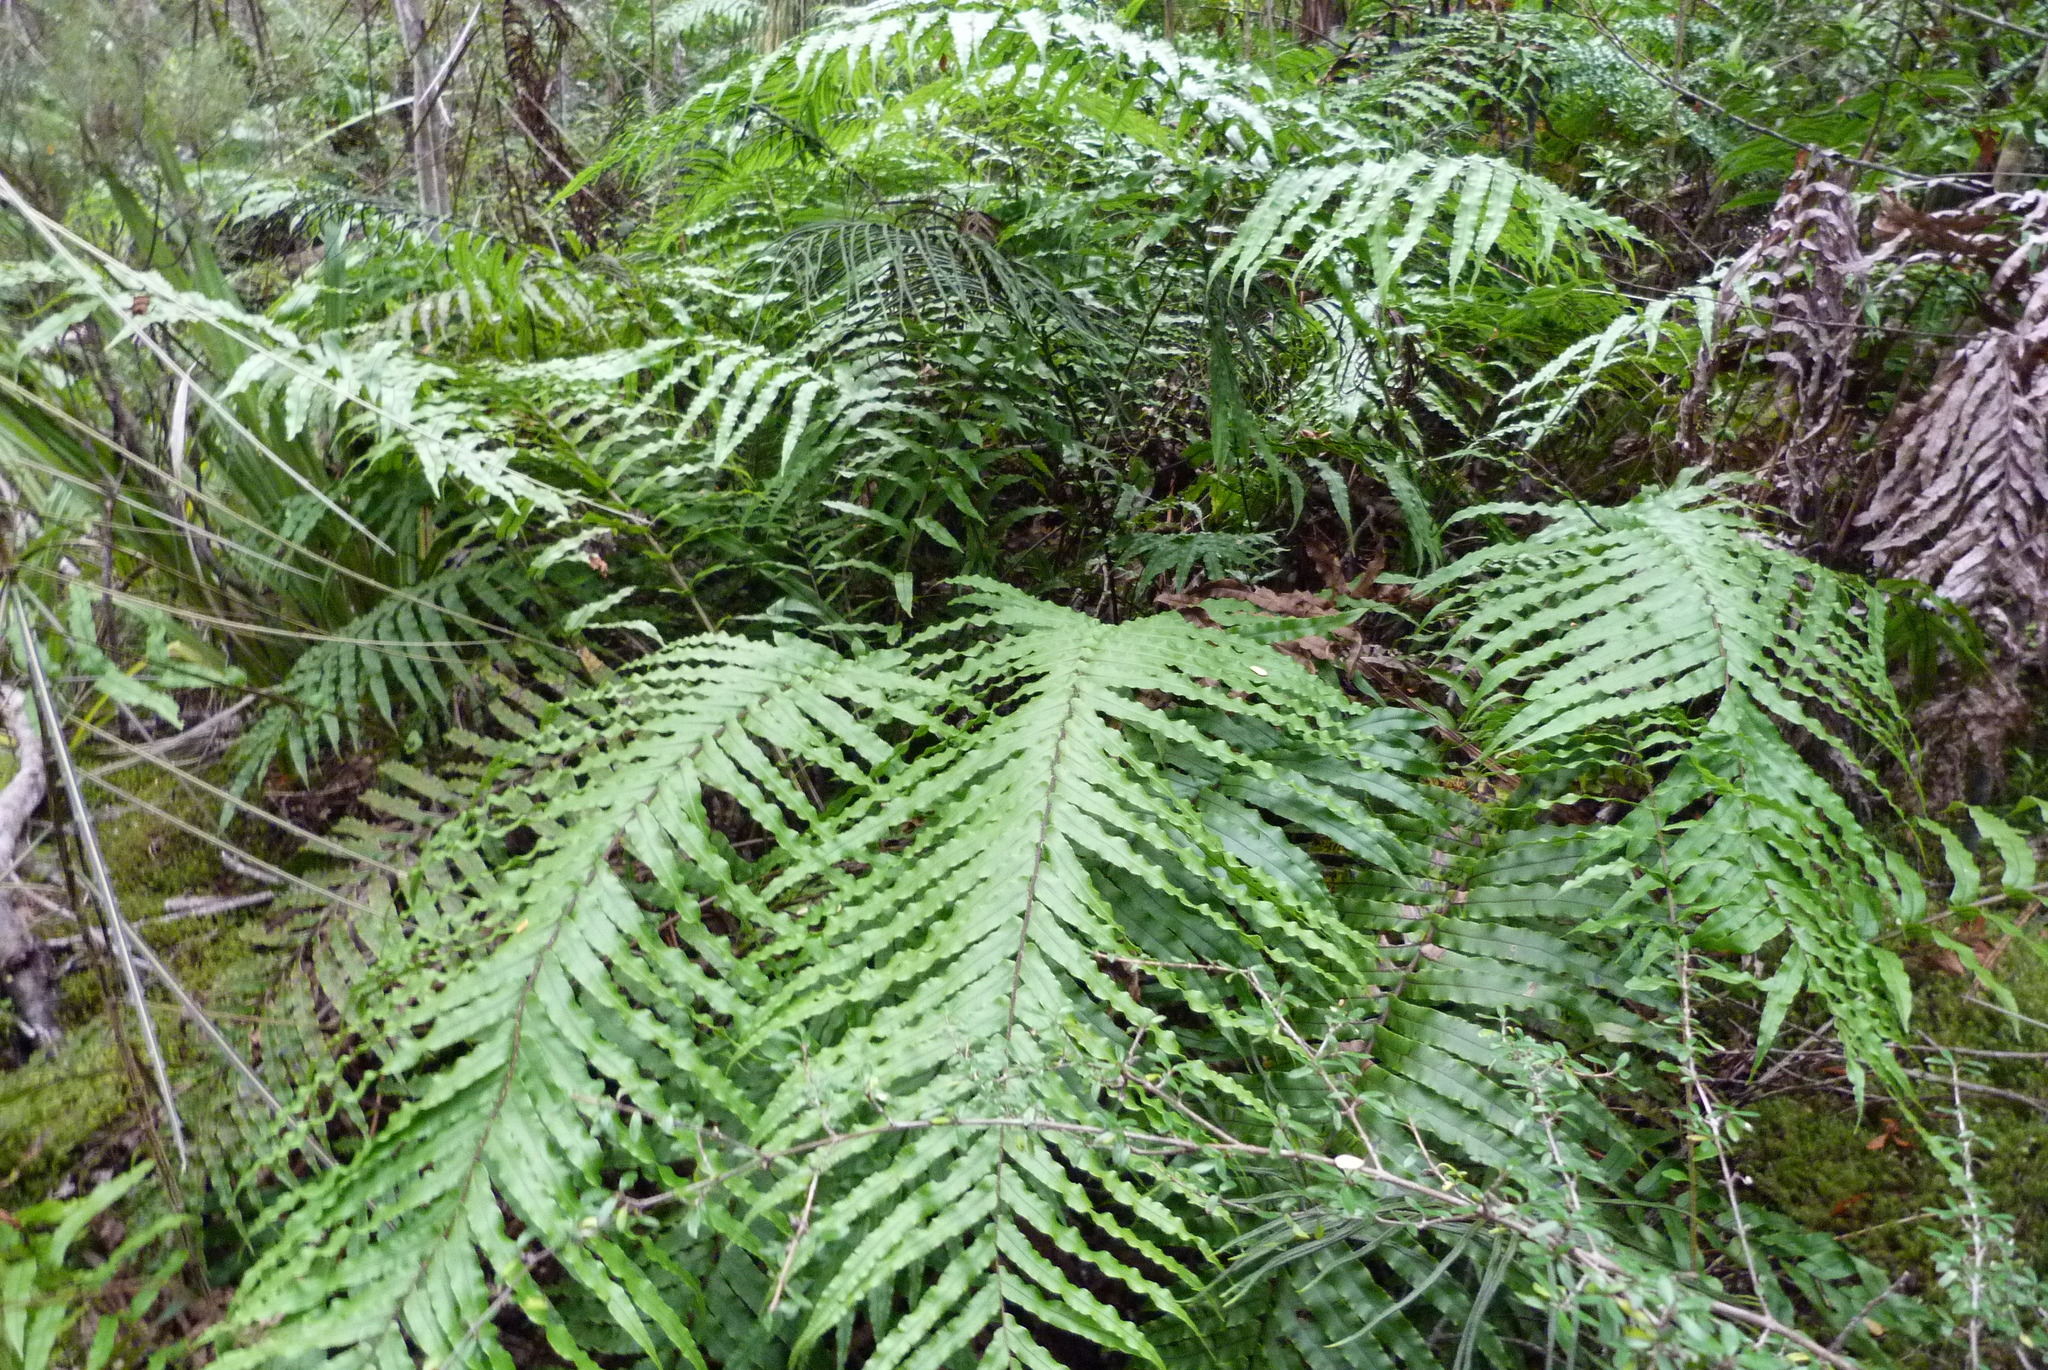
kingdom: Plantae
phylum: Tracheophyta
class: Polypodiopsida
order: Polypodiales
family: Blechnaceae
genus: Parablechnum
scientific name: Parablechnum novae-zelandiae
